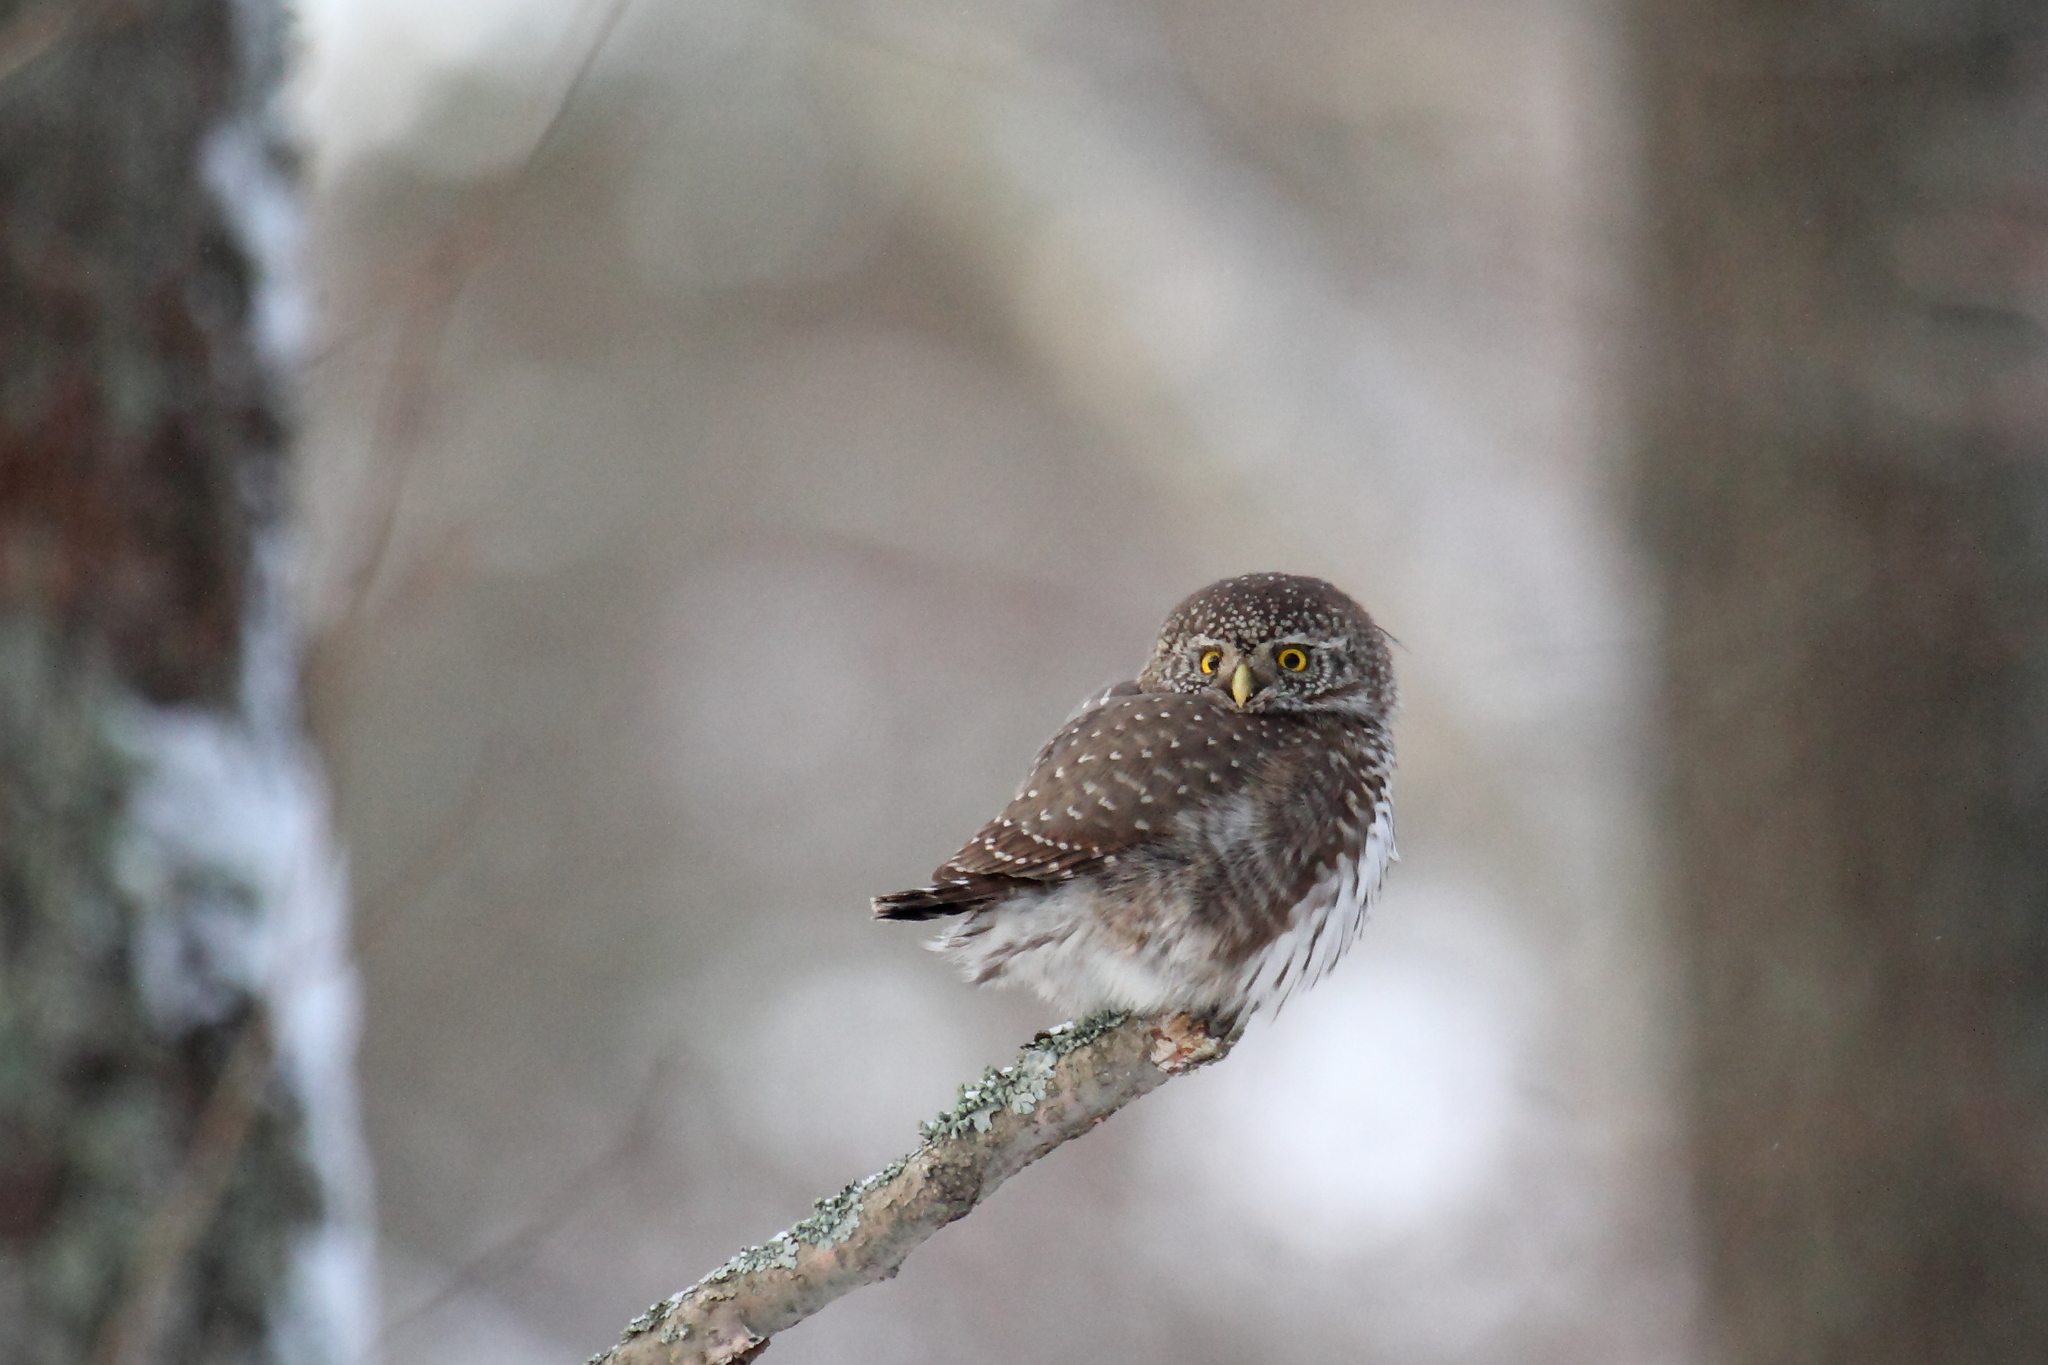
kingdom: Animalia
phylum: Chordata
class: Aves
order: Strigiformes
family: Strigidae
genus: Glaucidium
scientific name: Glaucidium passerinum
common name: Eurasian pygmy owl
